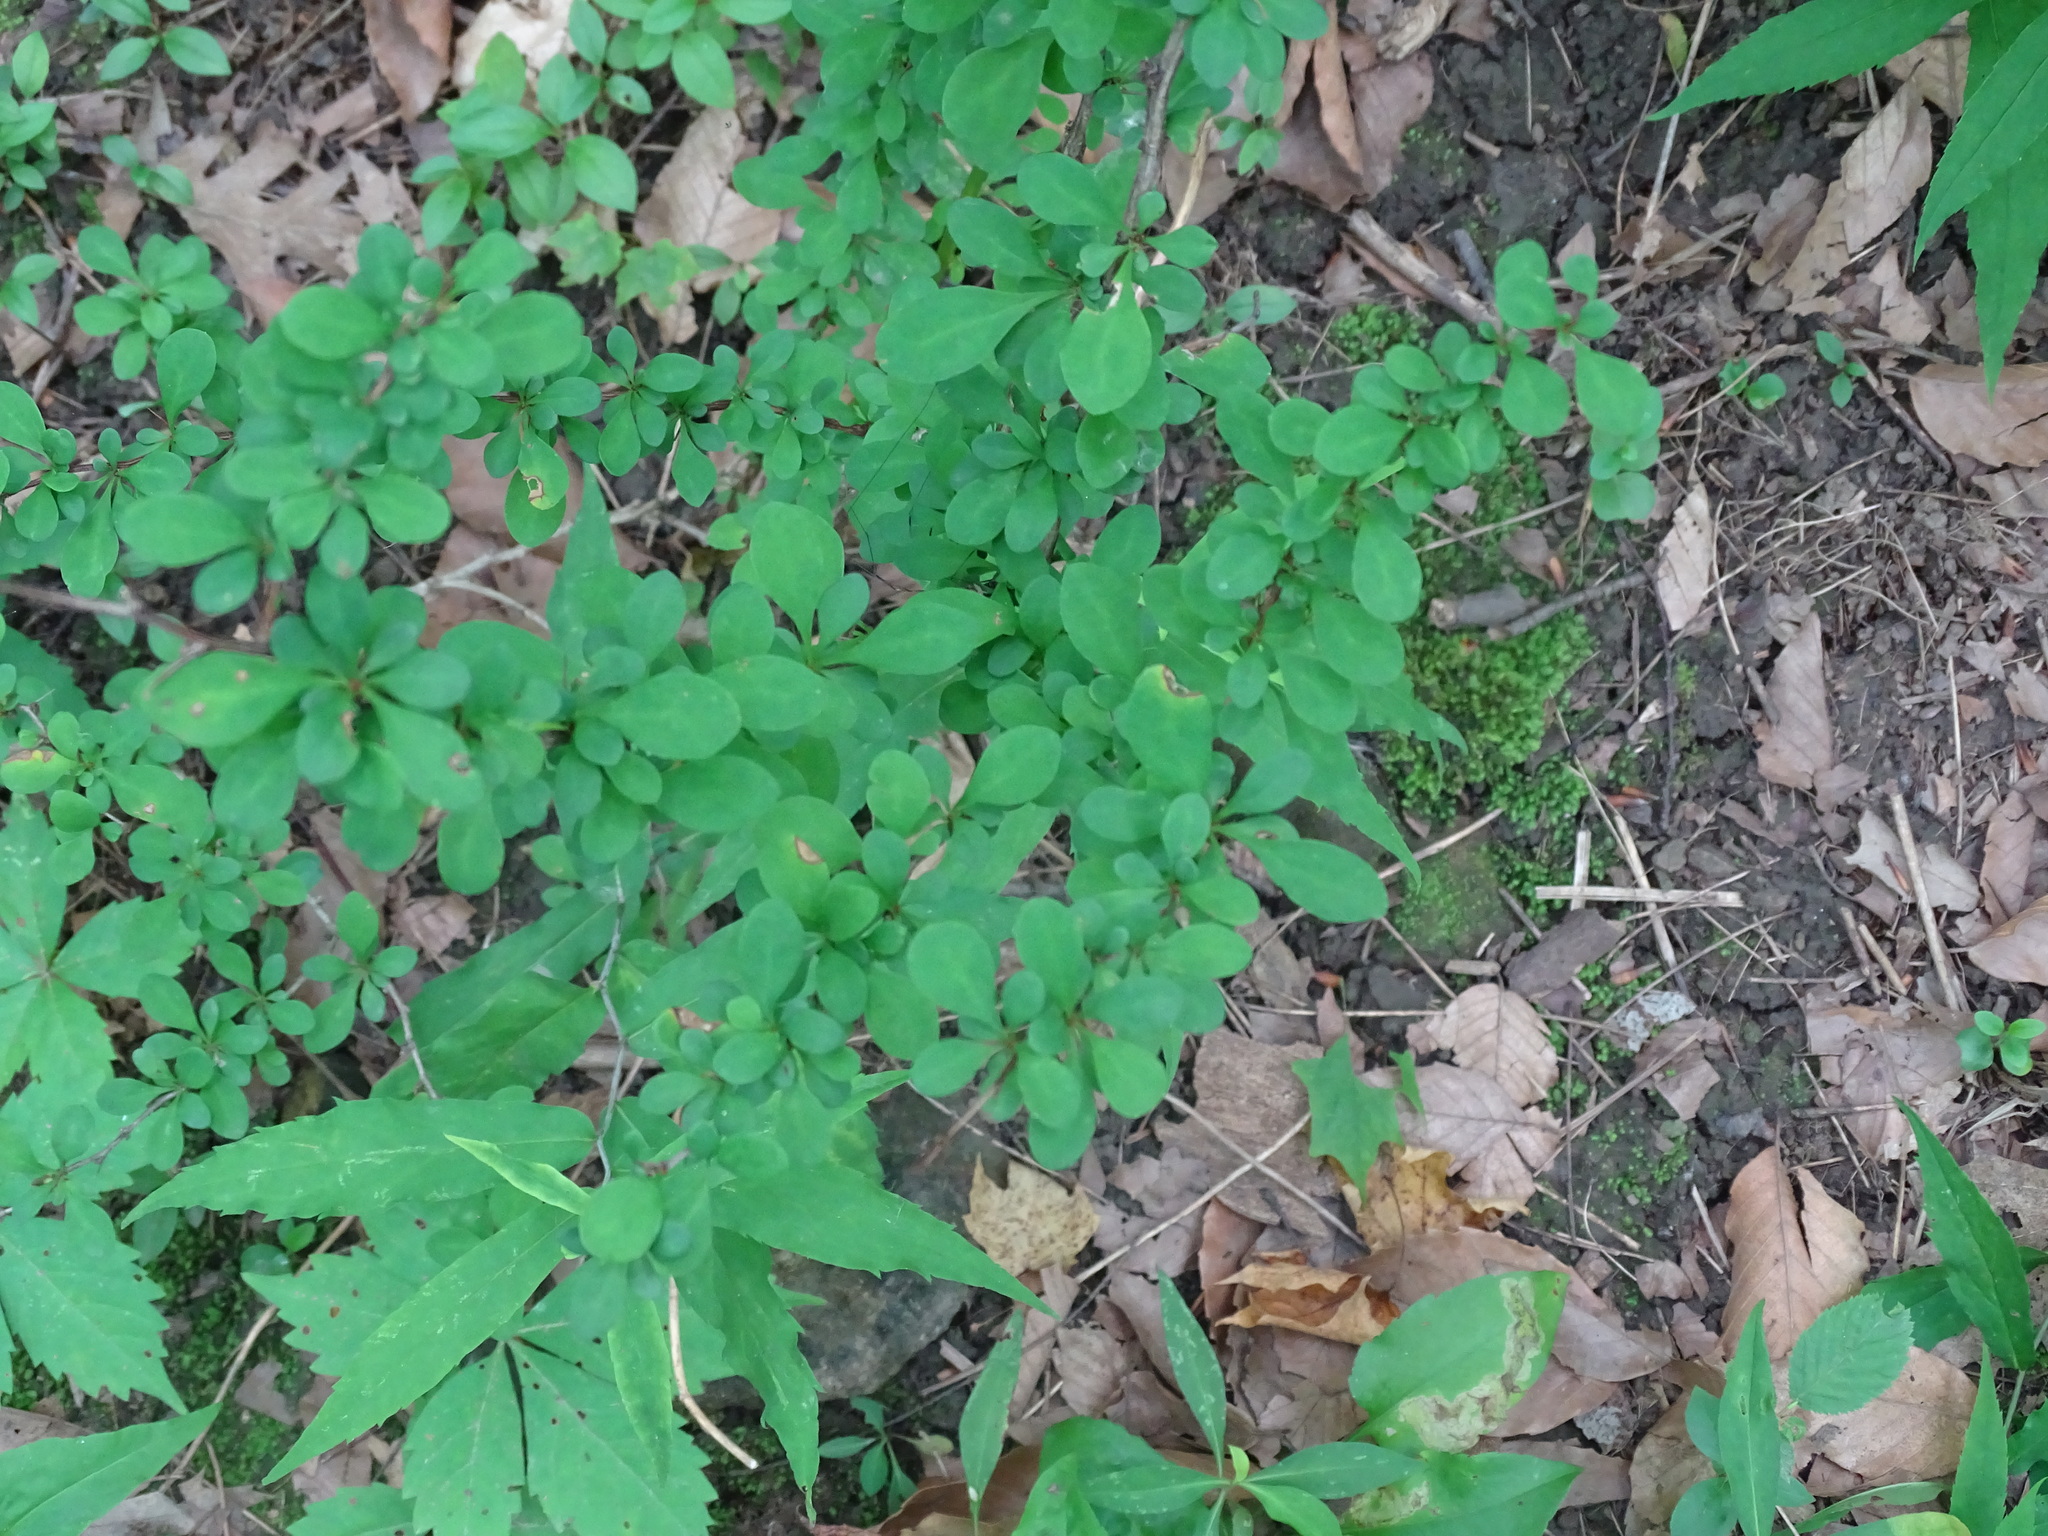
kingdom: Plantae
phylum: Tracheophyta
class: Magnoliopsida
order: Ranunculales
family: Berberidaceae
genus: Berberis
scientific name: Berberis thunbergii
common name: Japanese barberry
